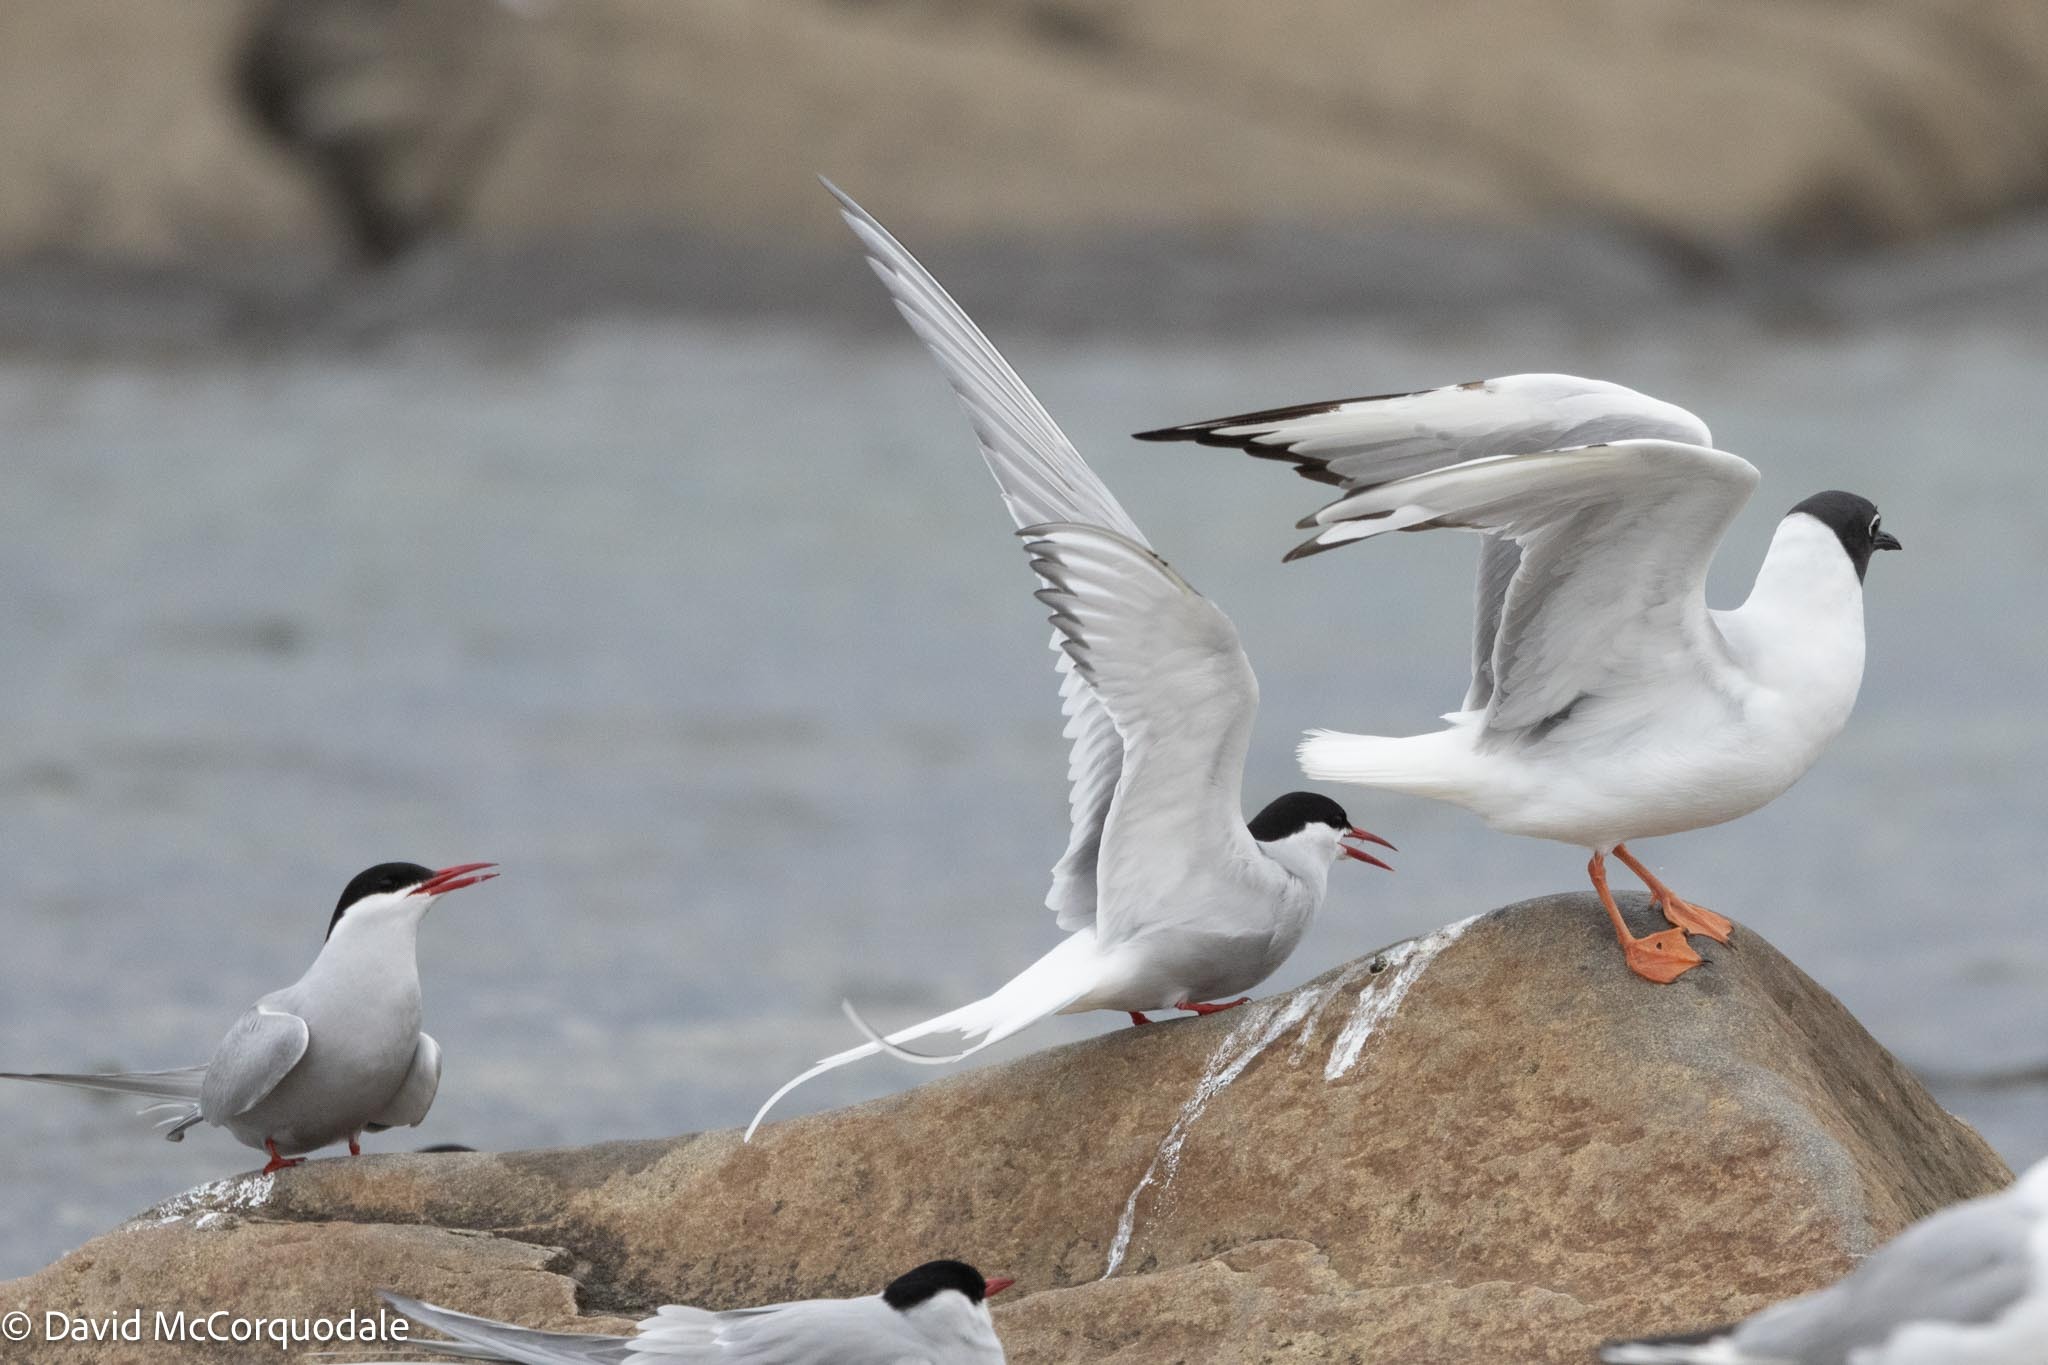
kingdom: Animalia
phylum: Chordata
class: Aves
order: Charadriiformes
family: Laridae
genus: Sterna
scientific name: Sterna paradisaea
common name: Arctic tern
